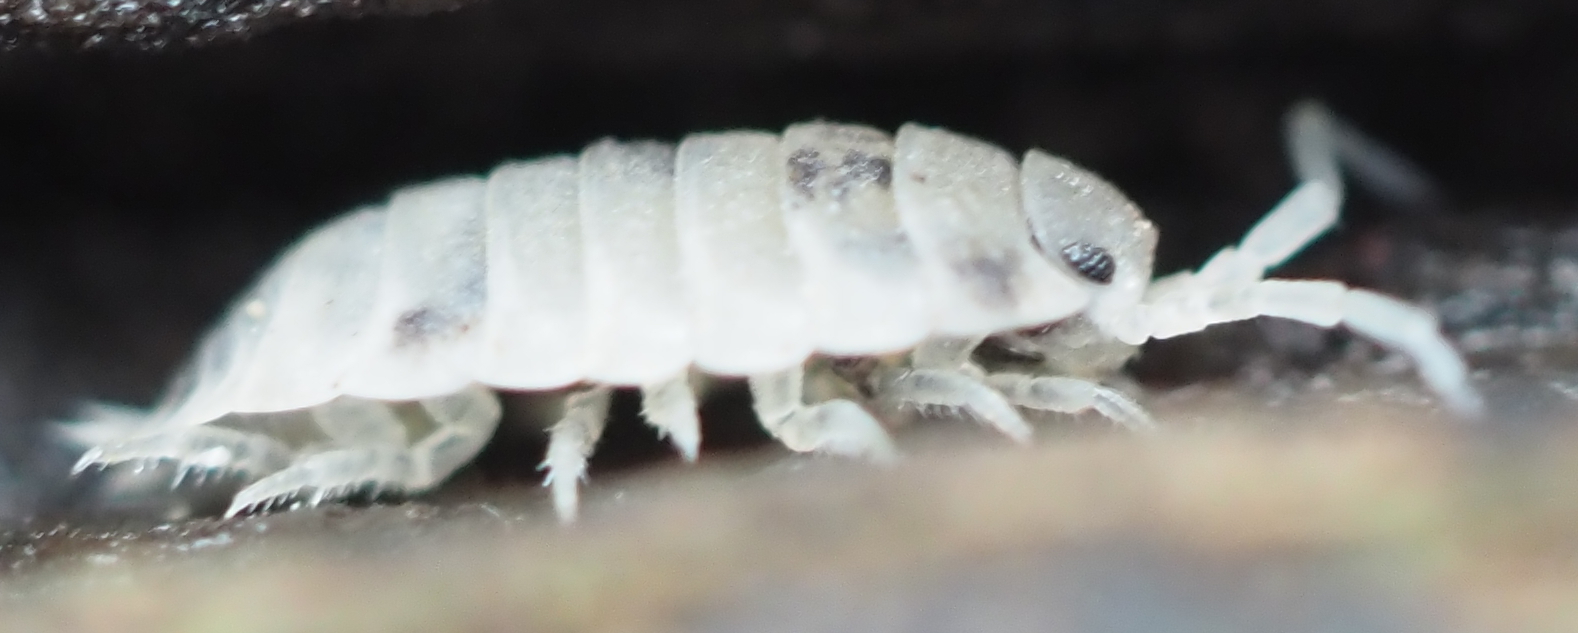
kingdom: Animalia
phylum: Arthropoda
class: Malacostraca
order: Isopoda
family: Oniscidae
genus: Oniscus
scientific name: Oniscus asellus
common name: Common shiny woodlouse
